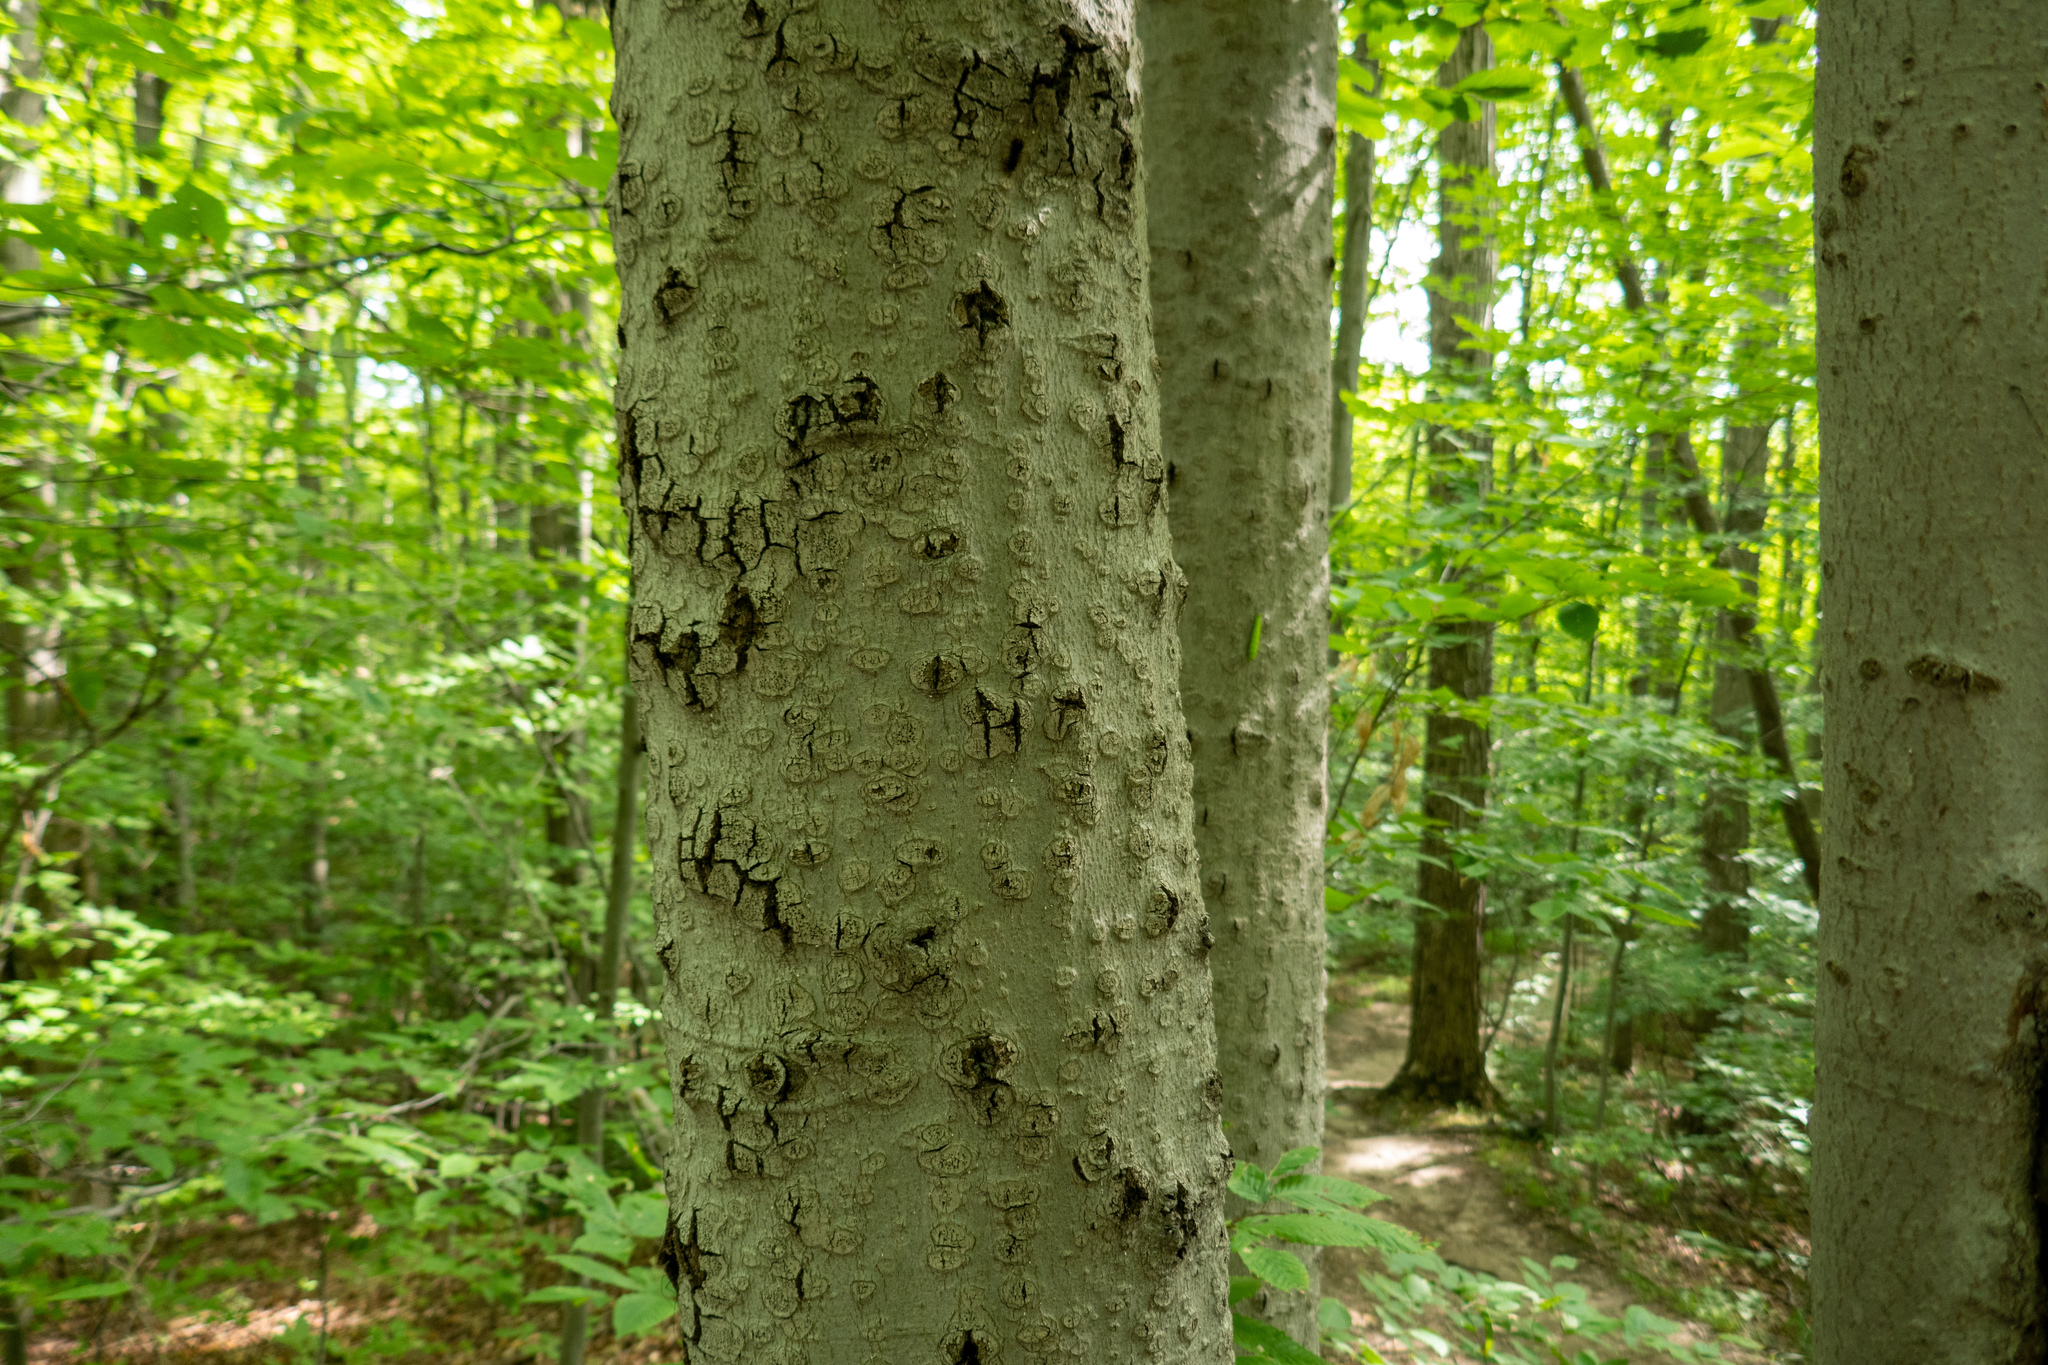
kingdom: Plantae
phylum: Tracheophyta
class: Magnoliopsida
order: Fagales
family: Fagaceae
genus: Fagus
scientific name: Fagus grandifolia
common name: American beech
